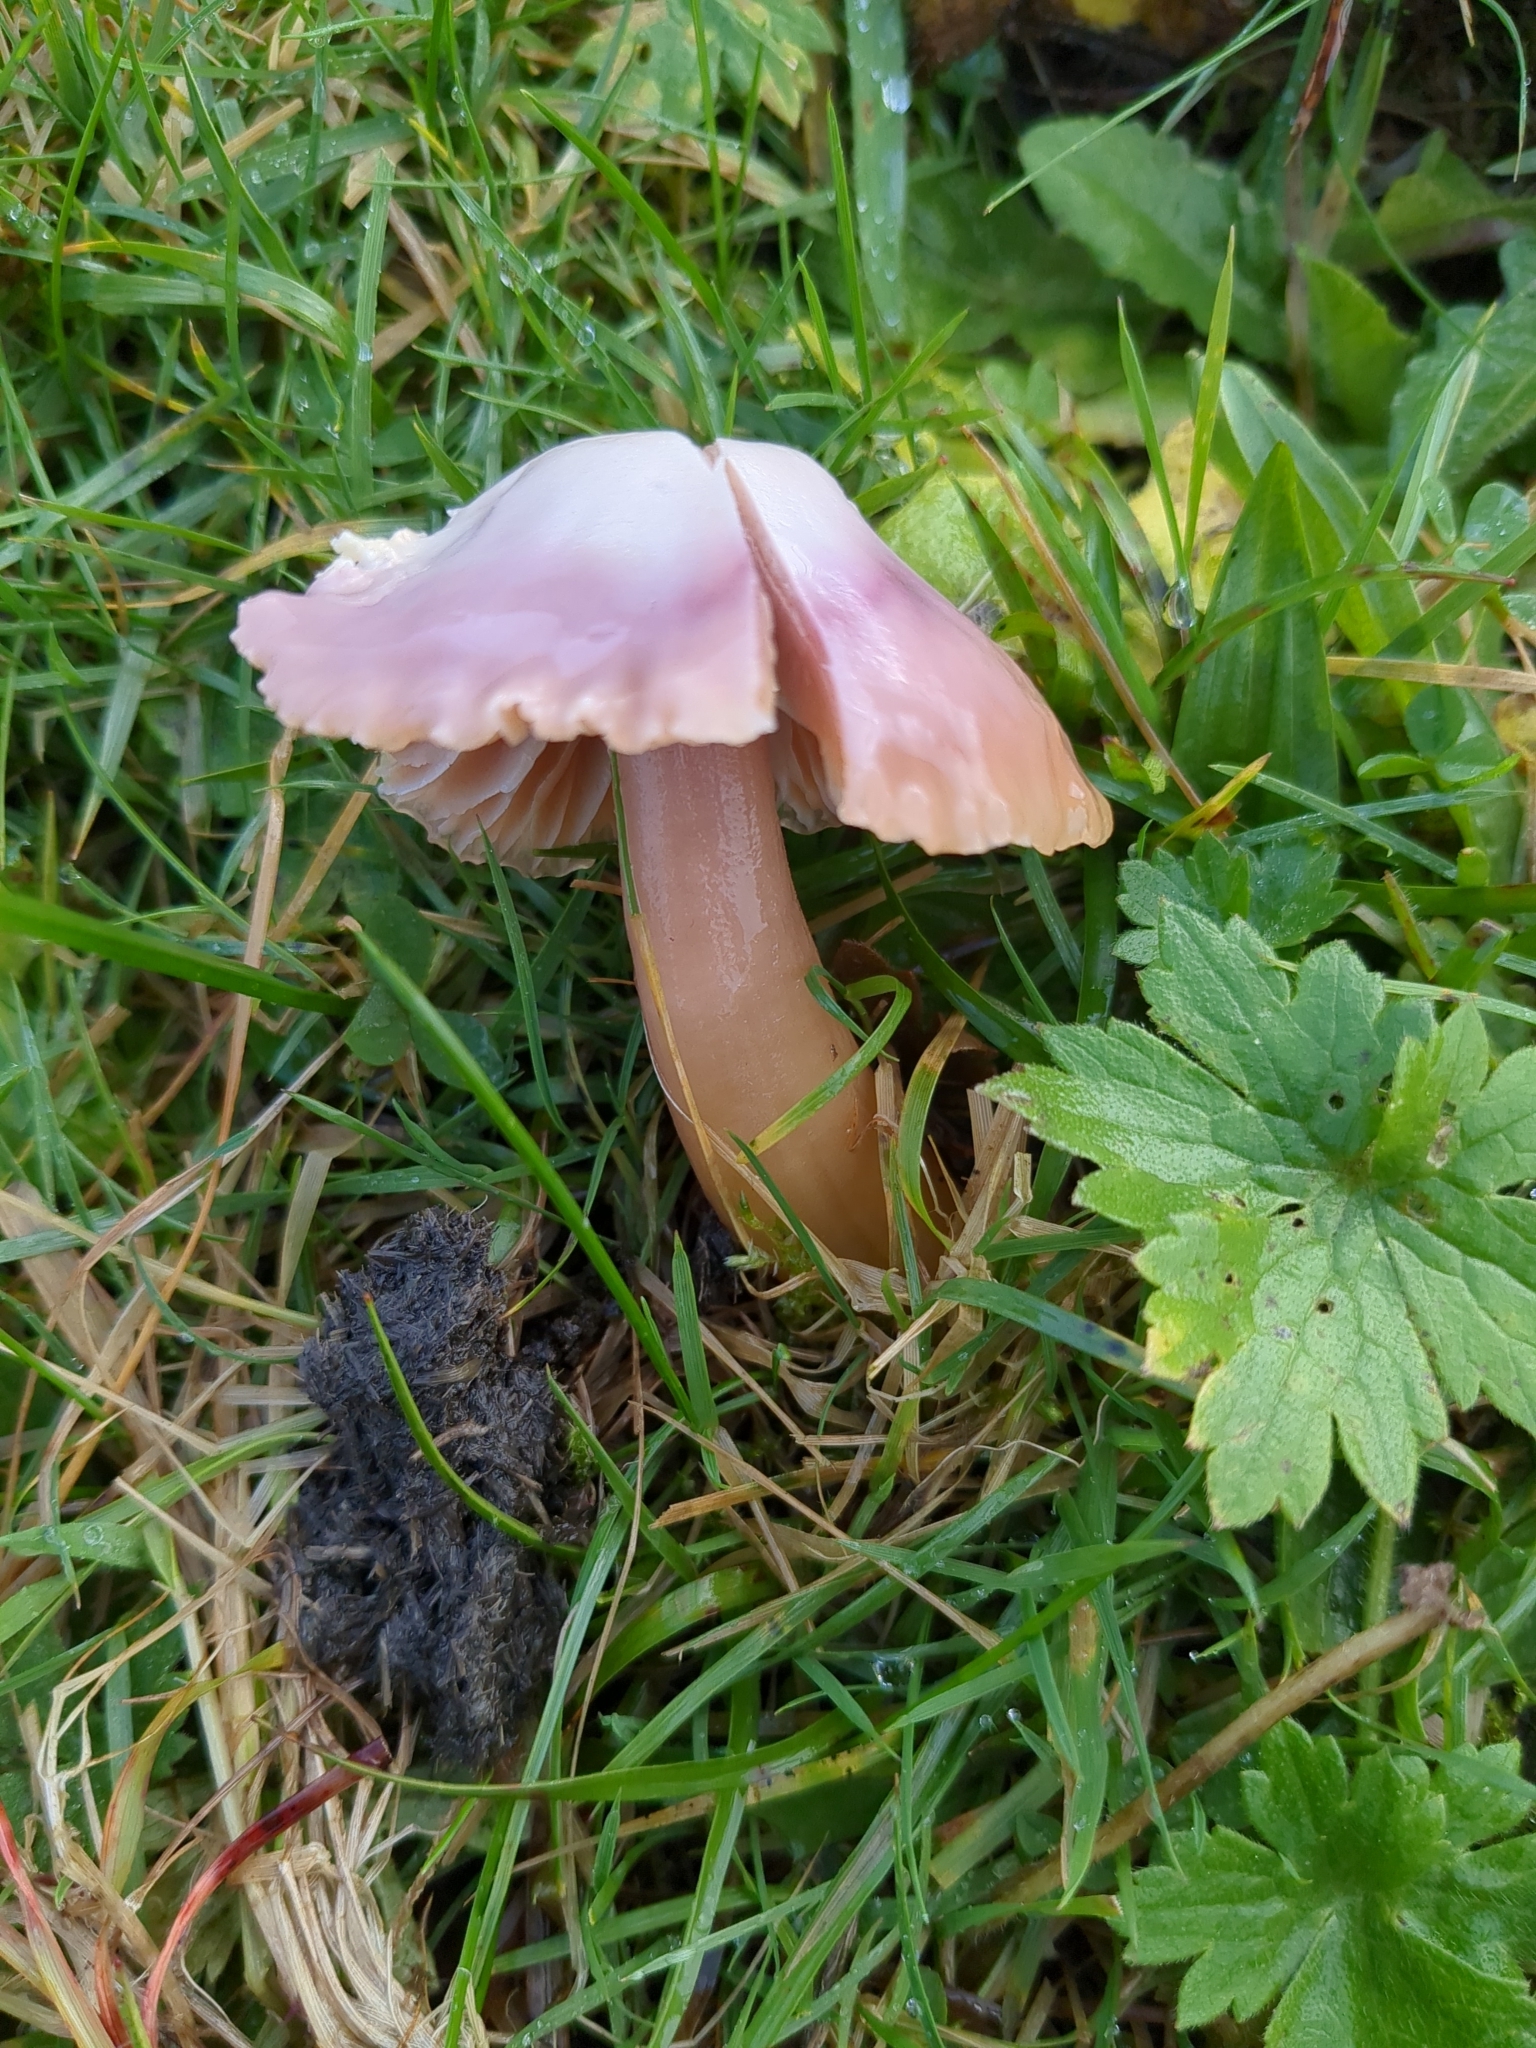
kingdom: Fungi
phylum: Basidiomycota
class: Agaricomycetes
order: Agaricales
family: Hygrophoraceae
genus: Gliophorus
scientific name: Gliophorus reginae
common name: Jubilee waxcap
